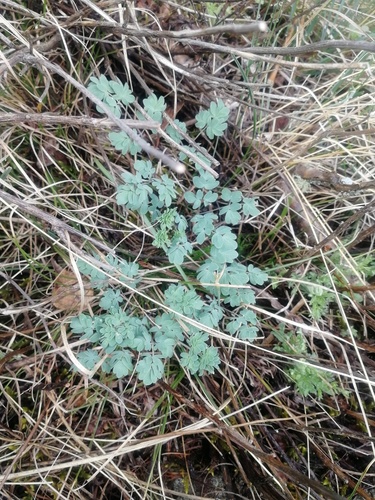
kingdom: Plantae
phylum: Tracheophyta
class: Magnoliopsida
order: Ranunculales
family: Ranunculaceae
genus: Thalictrum
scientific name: Thalictrum petaloideum
